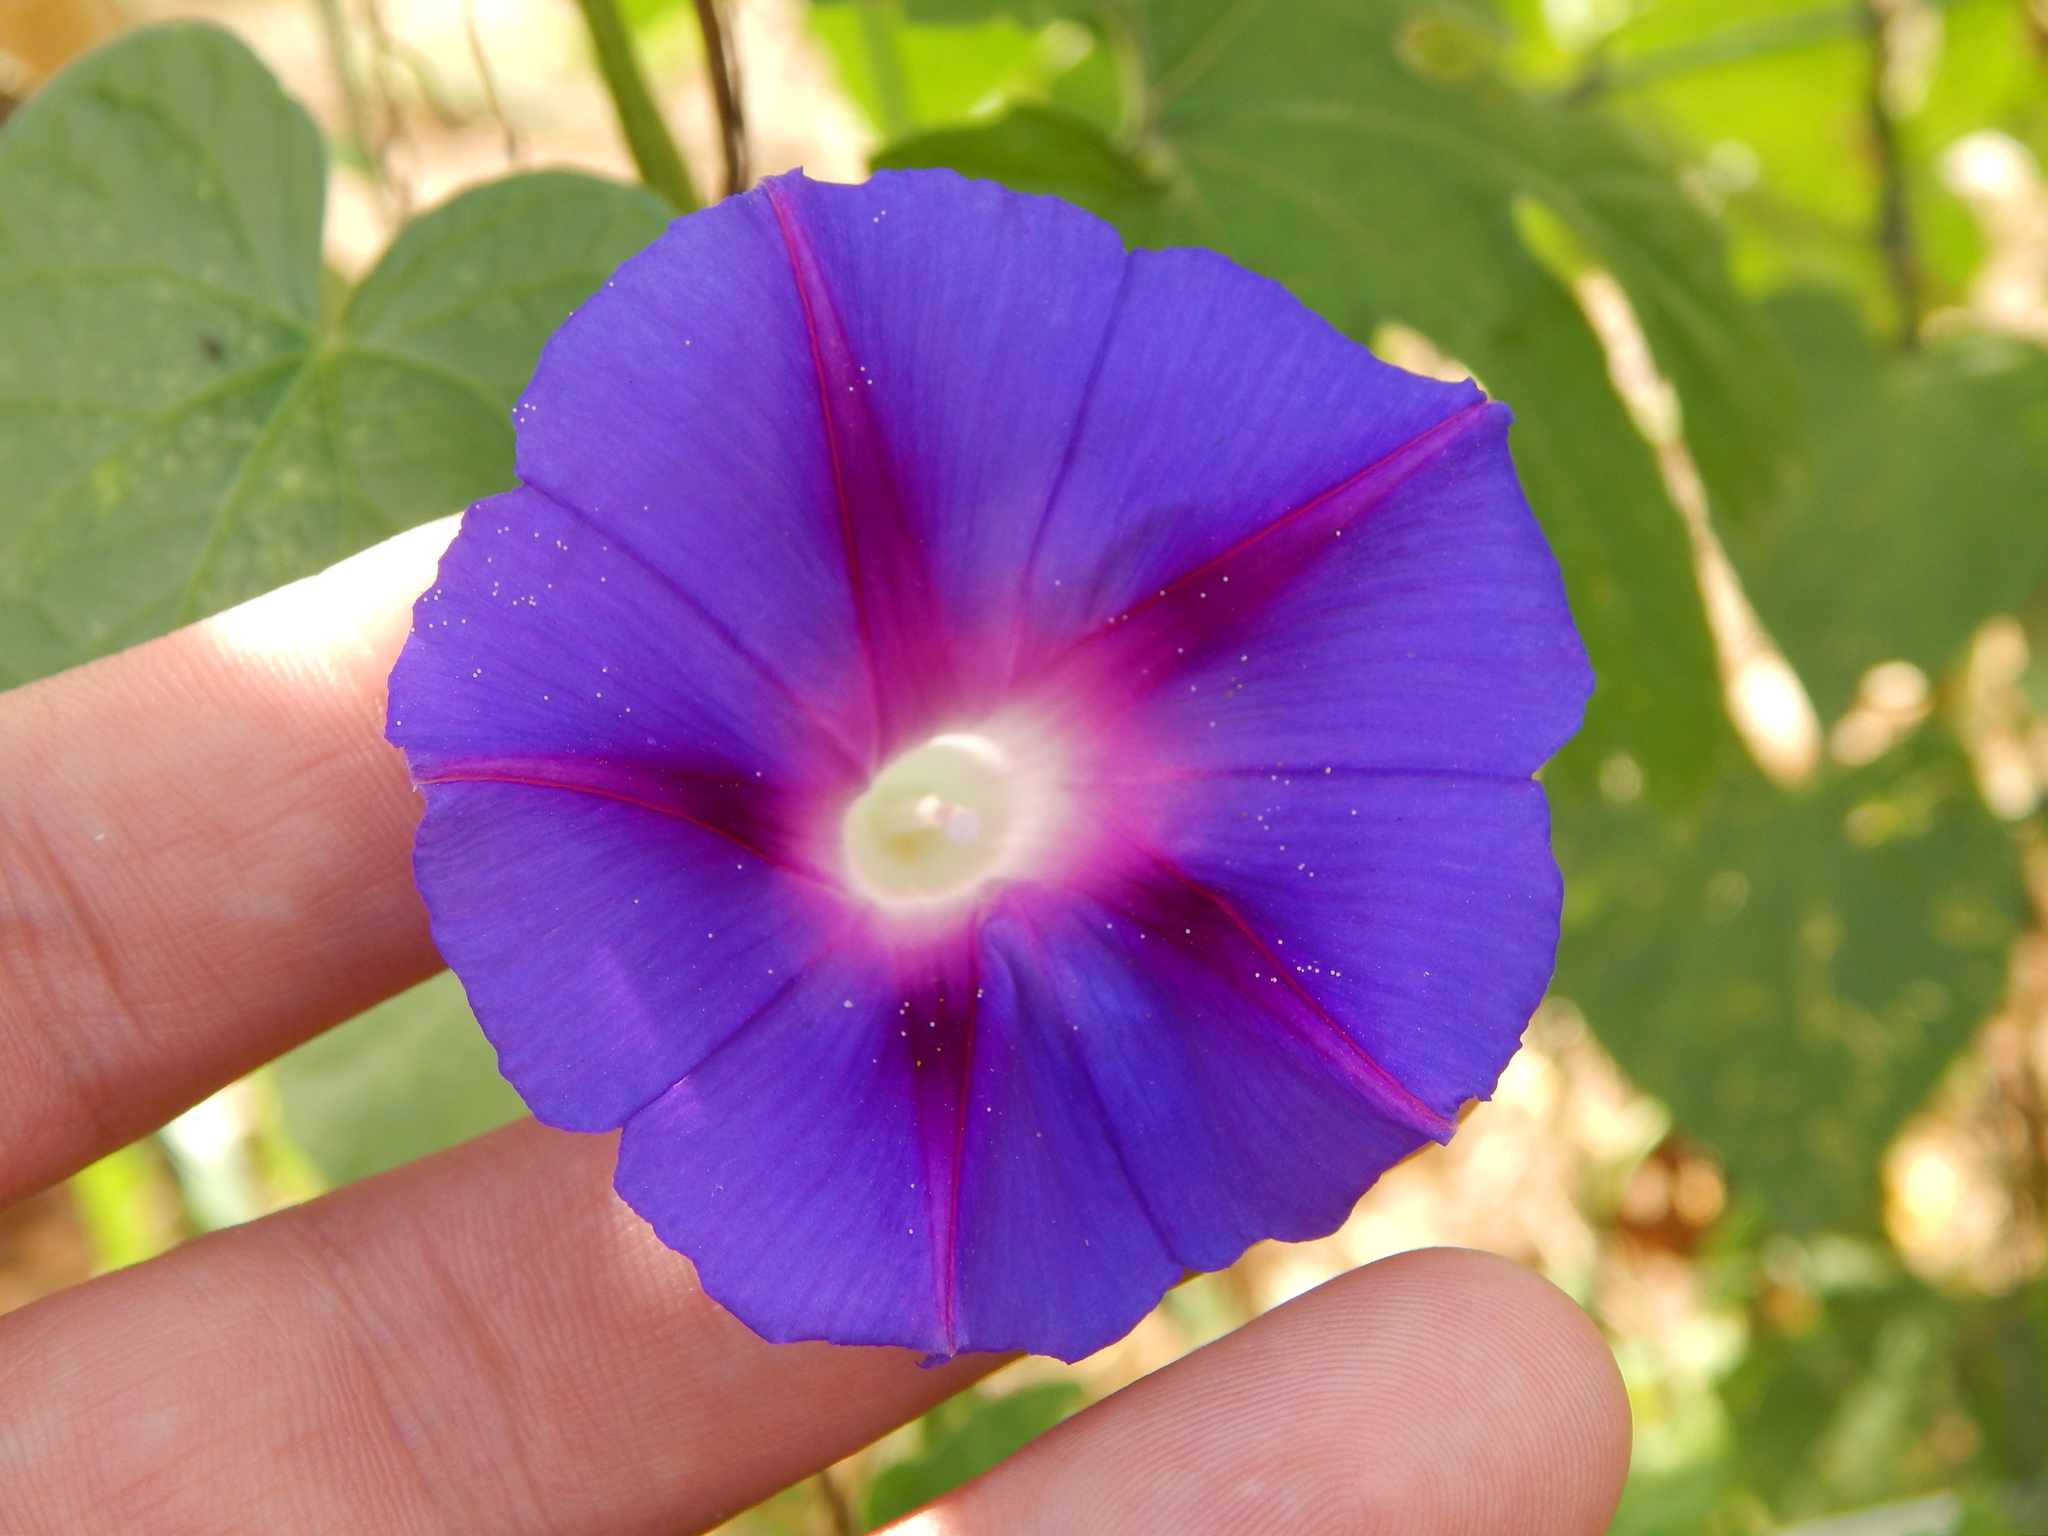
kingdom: Plantae
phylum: Tracheophyta
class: Magnoliopsida
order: Solanales
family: Convolvulaceae
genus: Ipomoea
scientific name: Ipomoea purpurea
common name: Common morning-glory
